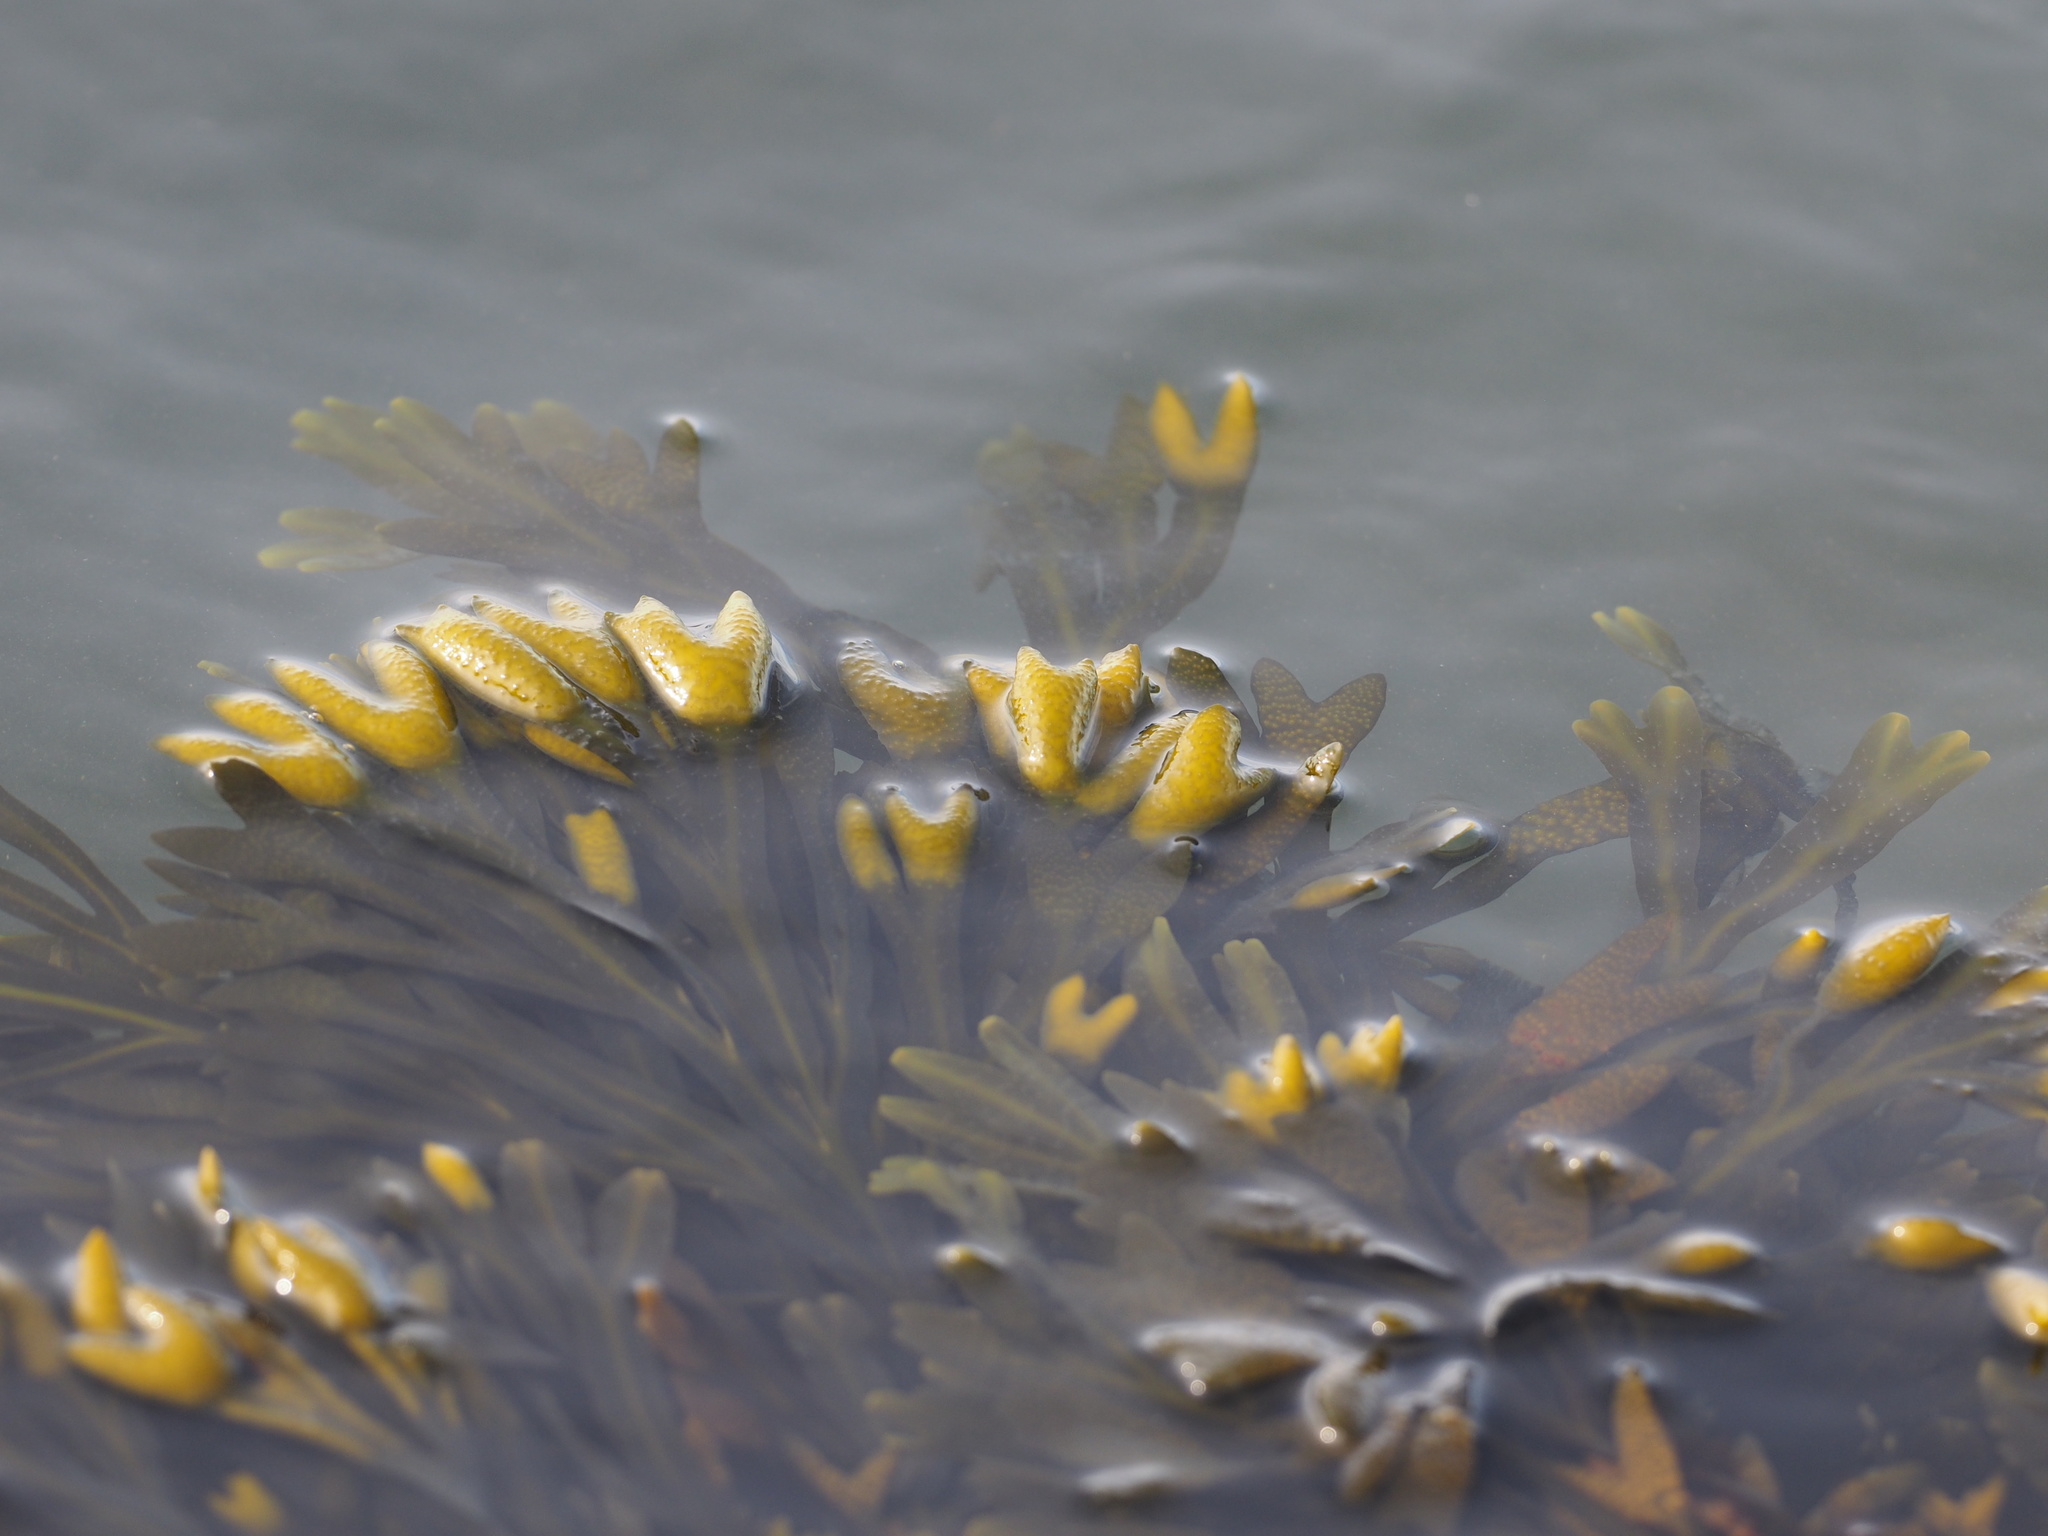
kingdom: Chromista
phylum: Ochrophyta
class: Phaeophyceae
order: Fucales
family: Fucaceae
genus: Fucus
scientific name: Fucus distichus
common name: Rockweed
